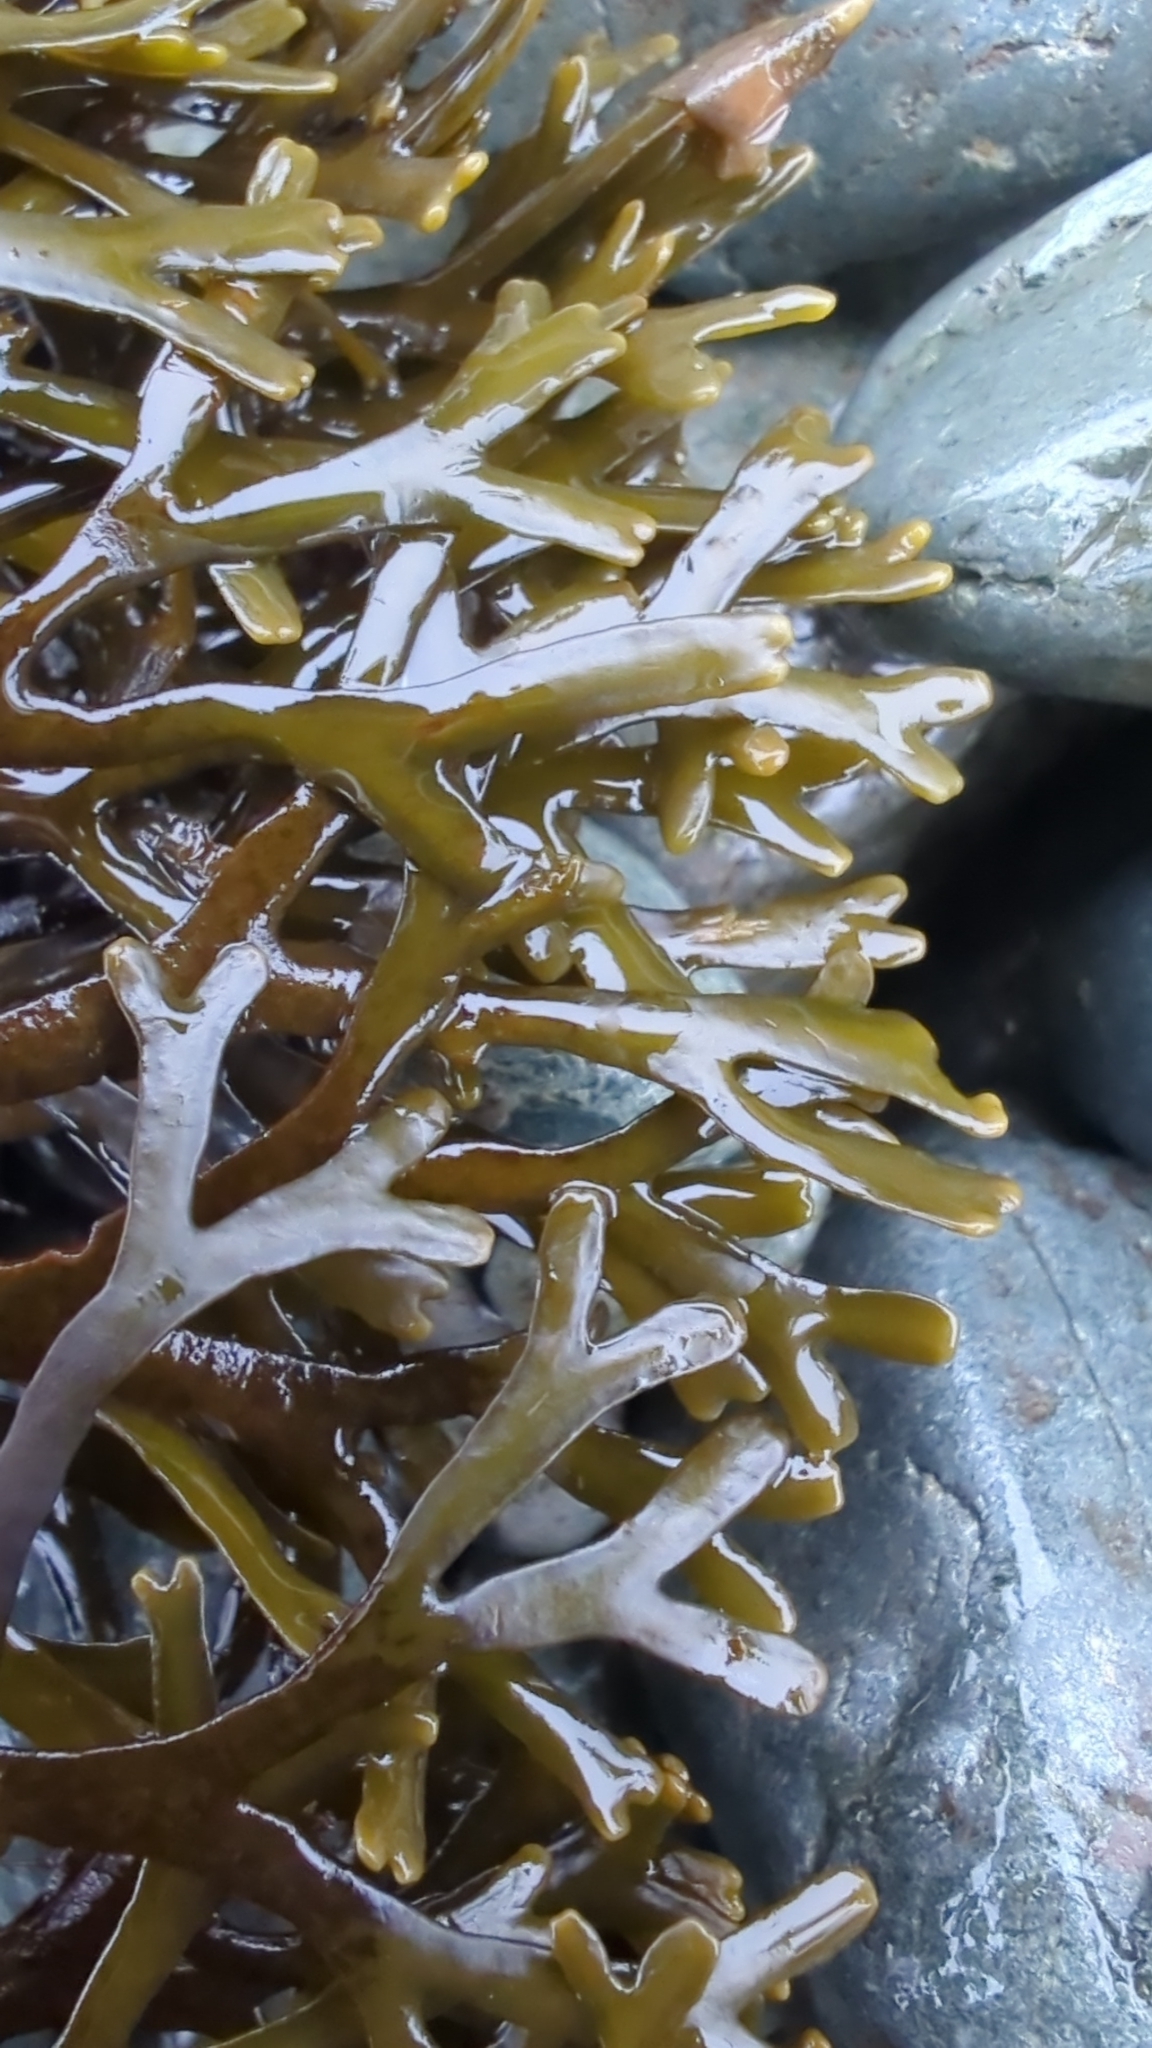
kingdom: Chromista
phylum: Ochrophyta
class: Phaeophyceae
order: Fucales
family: Fucaceae
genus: Fucus
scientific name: Fucus distichus
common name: Rockweed
